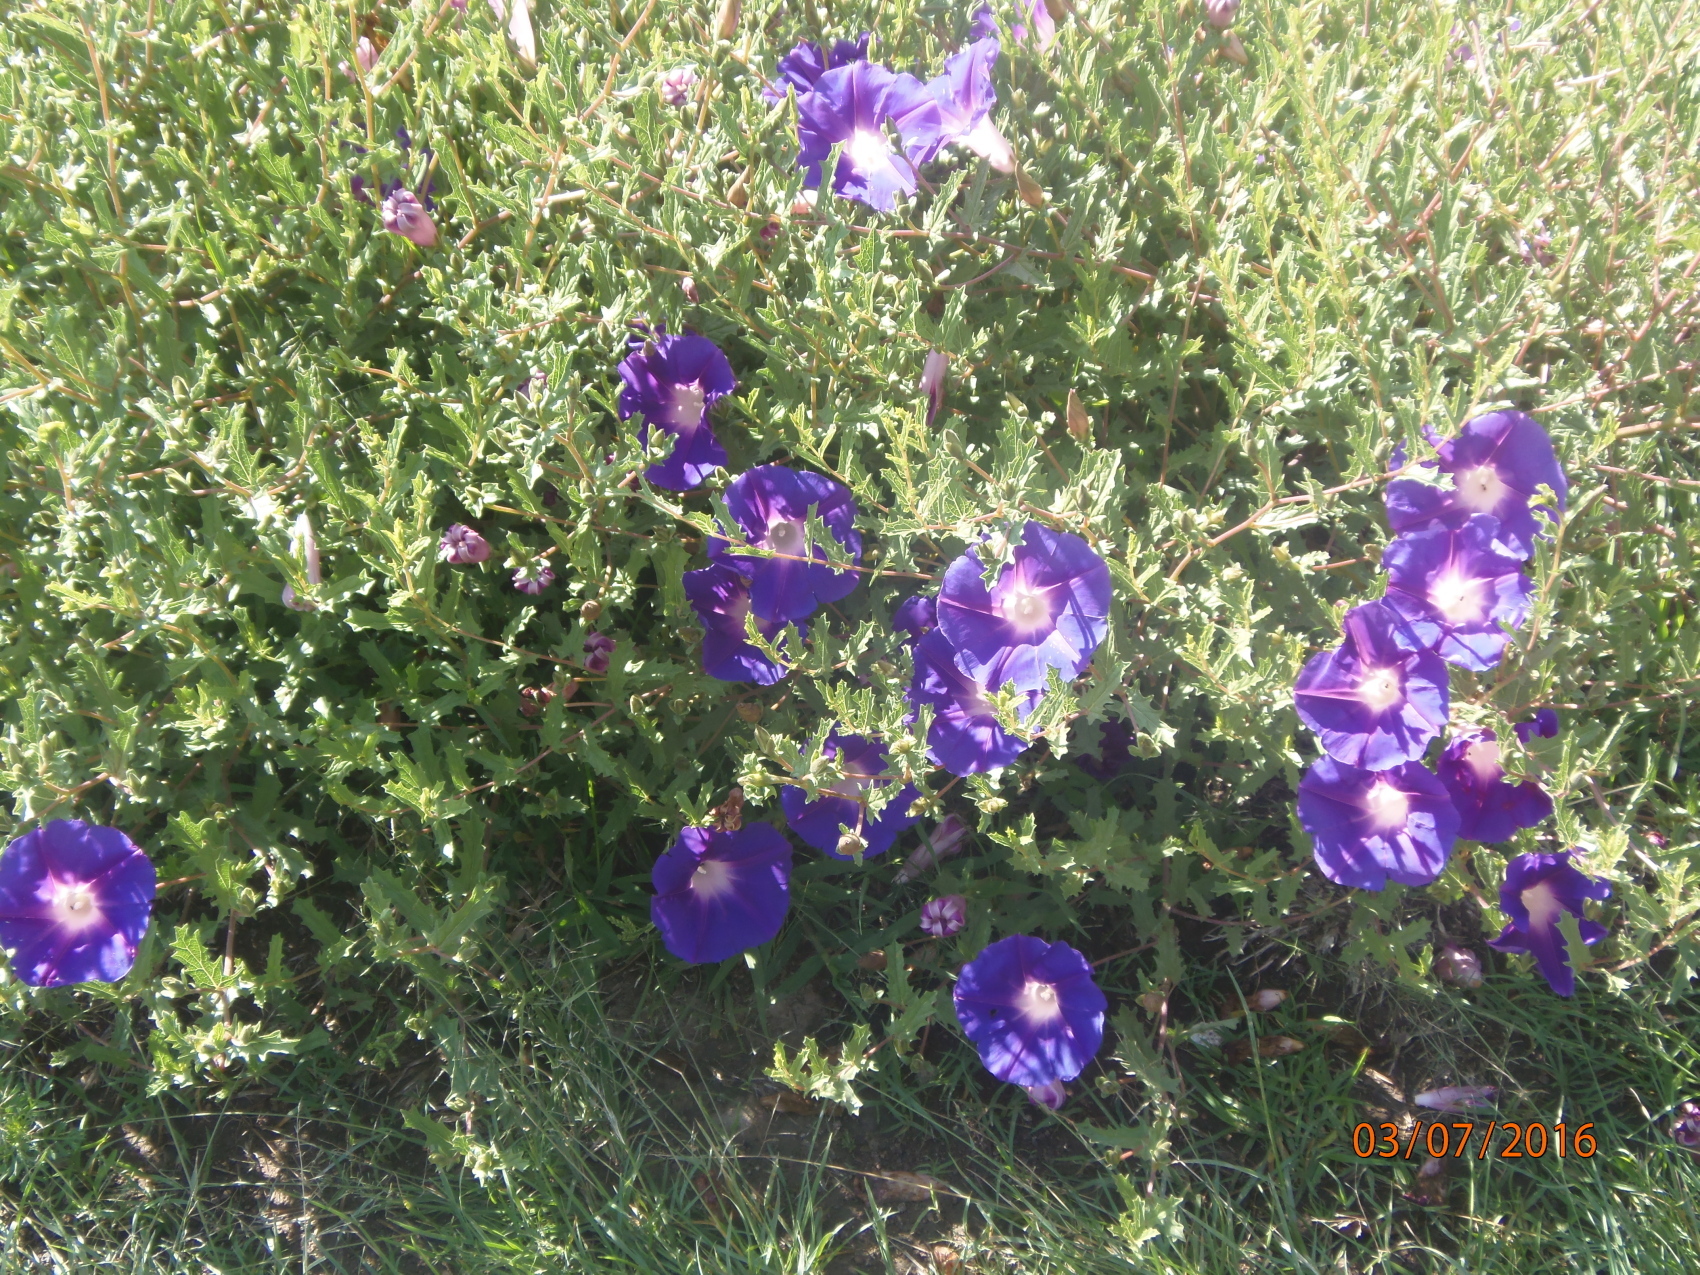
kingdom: Plantae
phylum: Tracheophyta
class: Magnoliopsida
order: Solanales
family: Convolvulaceae
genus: Ipomoea
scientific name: Ipomoea stans
